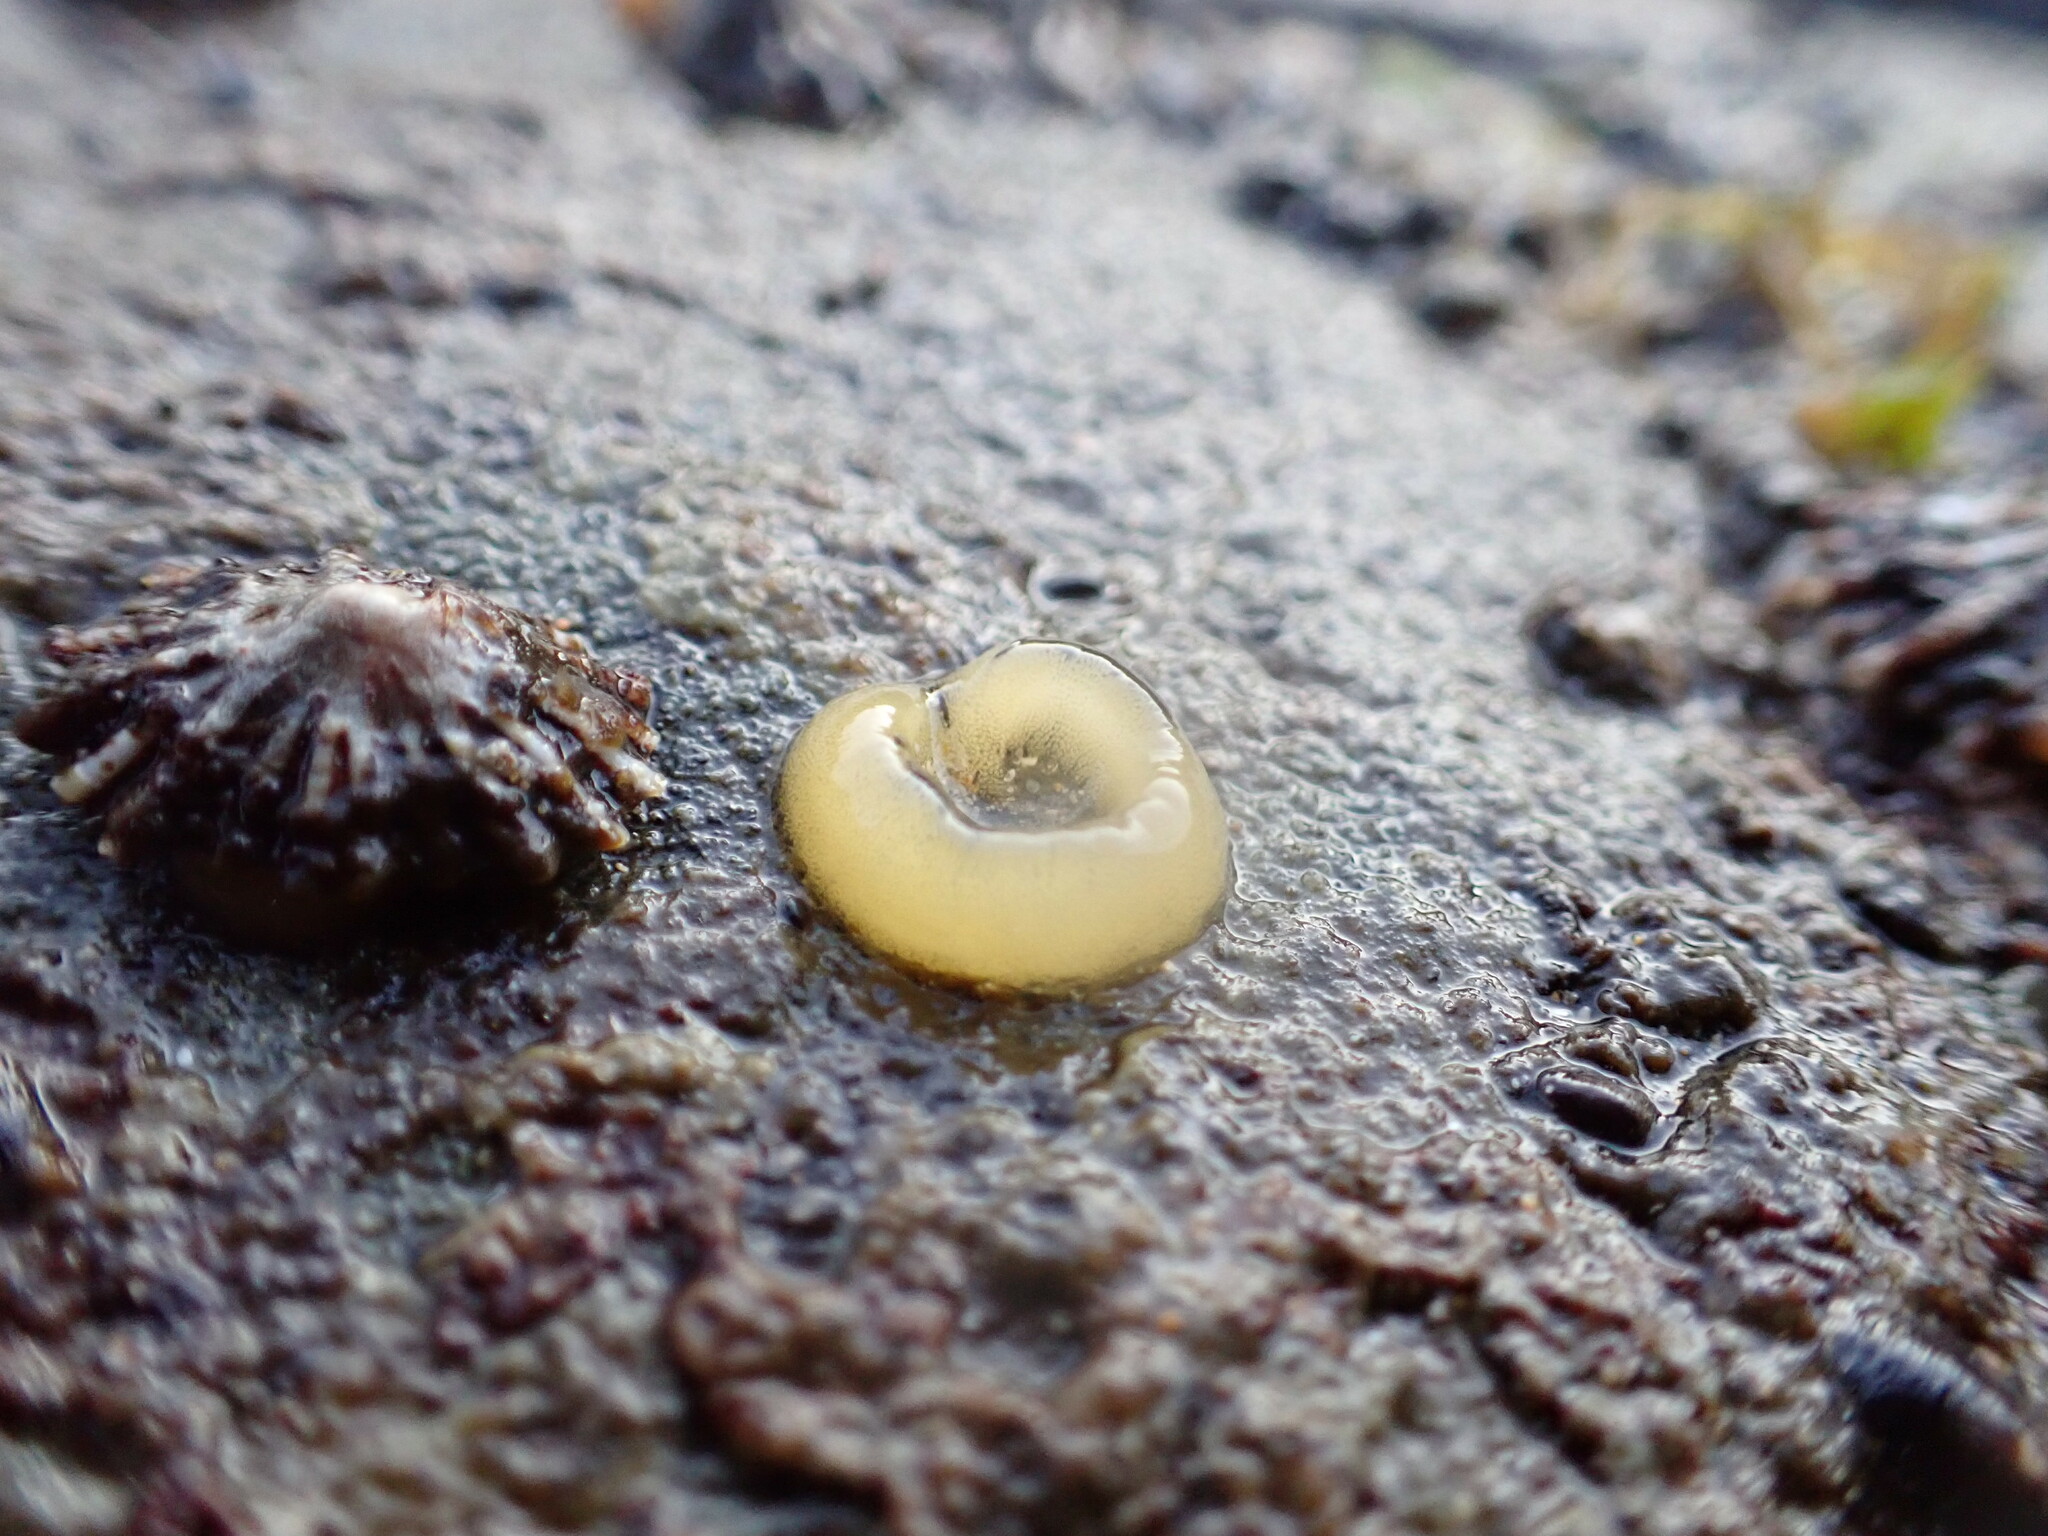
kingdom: Animalia
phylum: Mollusca
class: Gastropoda
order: Siphonariida
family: Siphonariidae
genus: Siphonaria
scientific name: Siphonaria diemenensis
